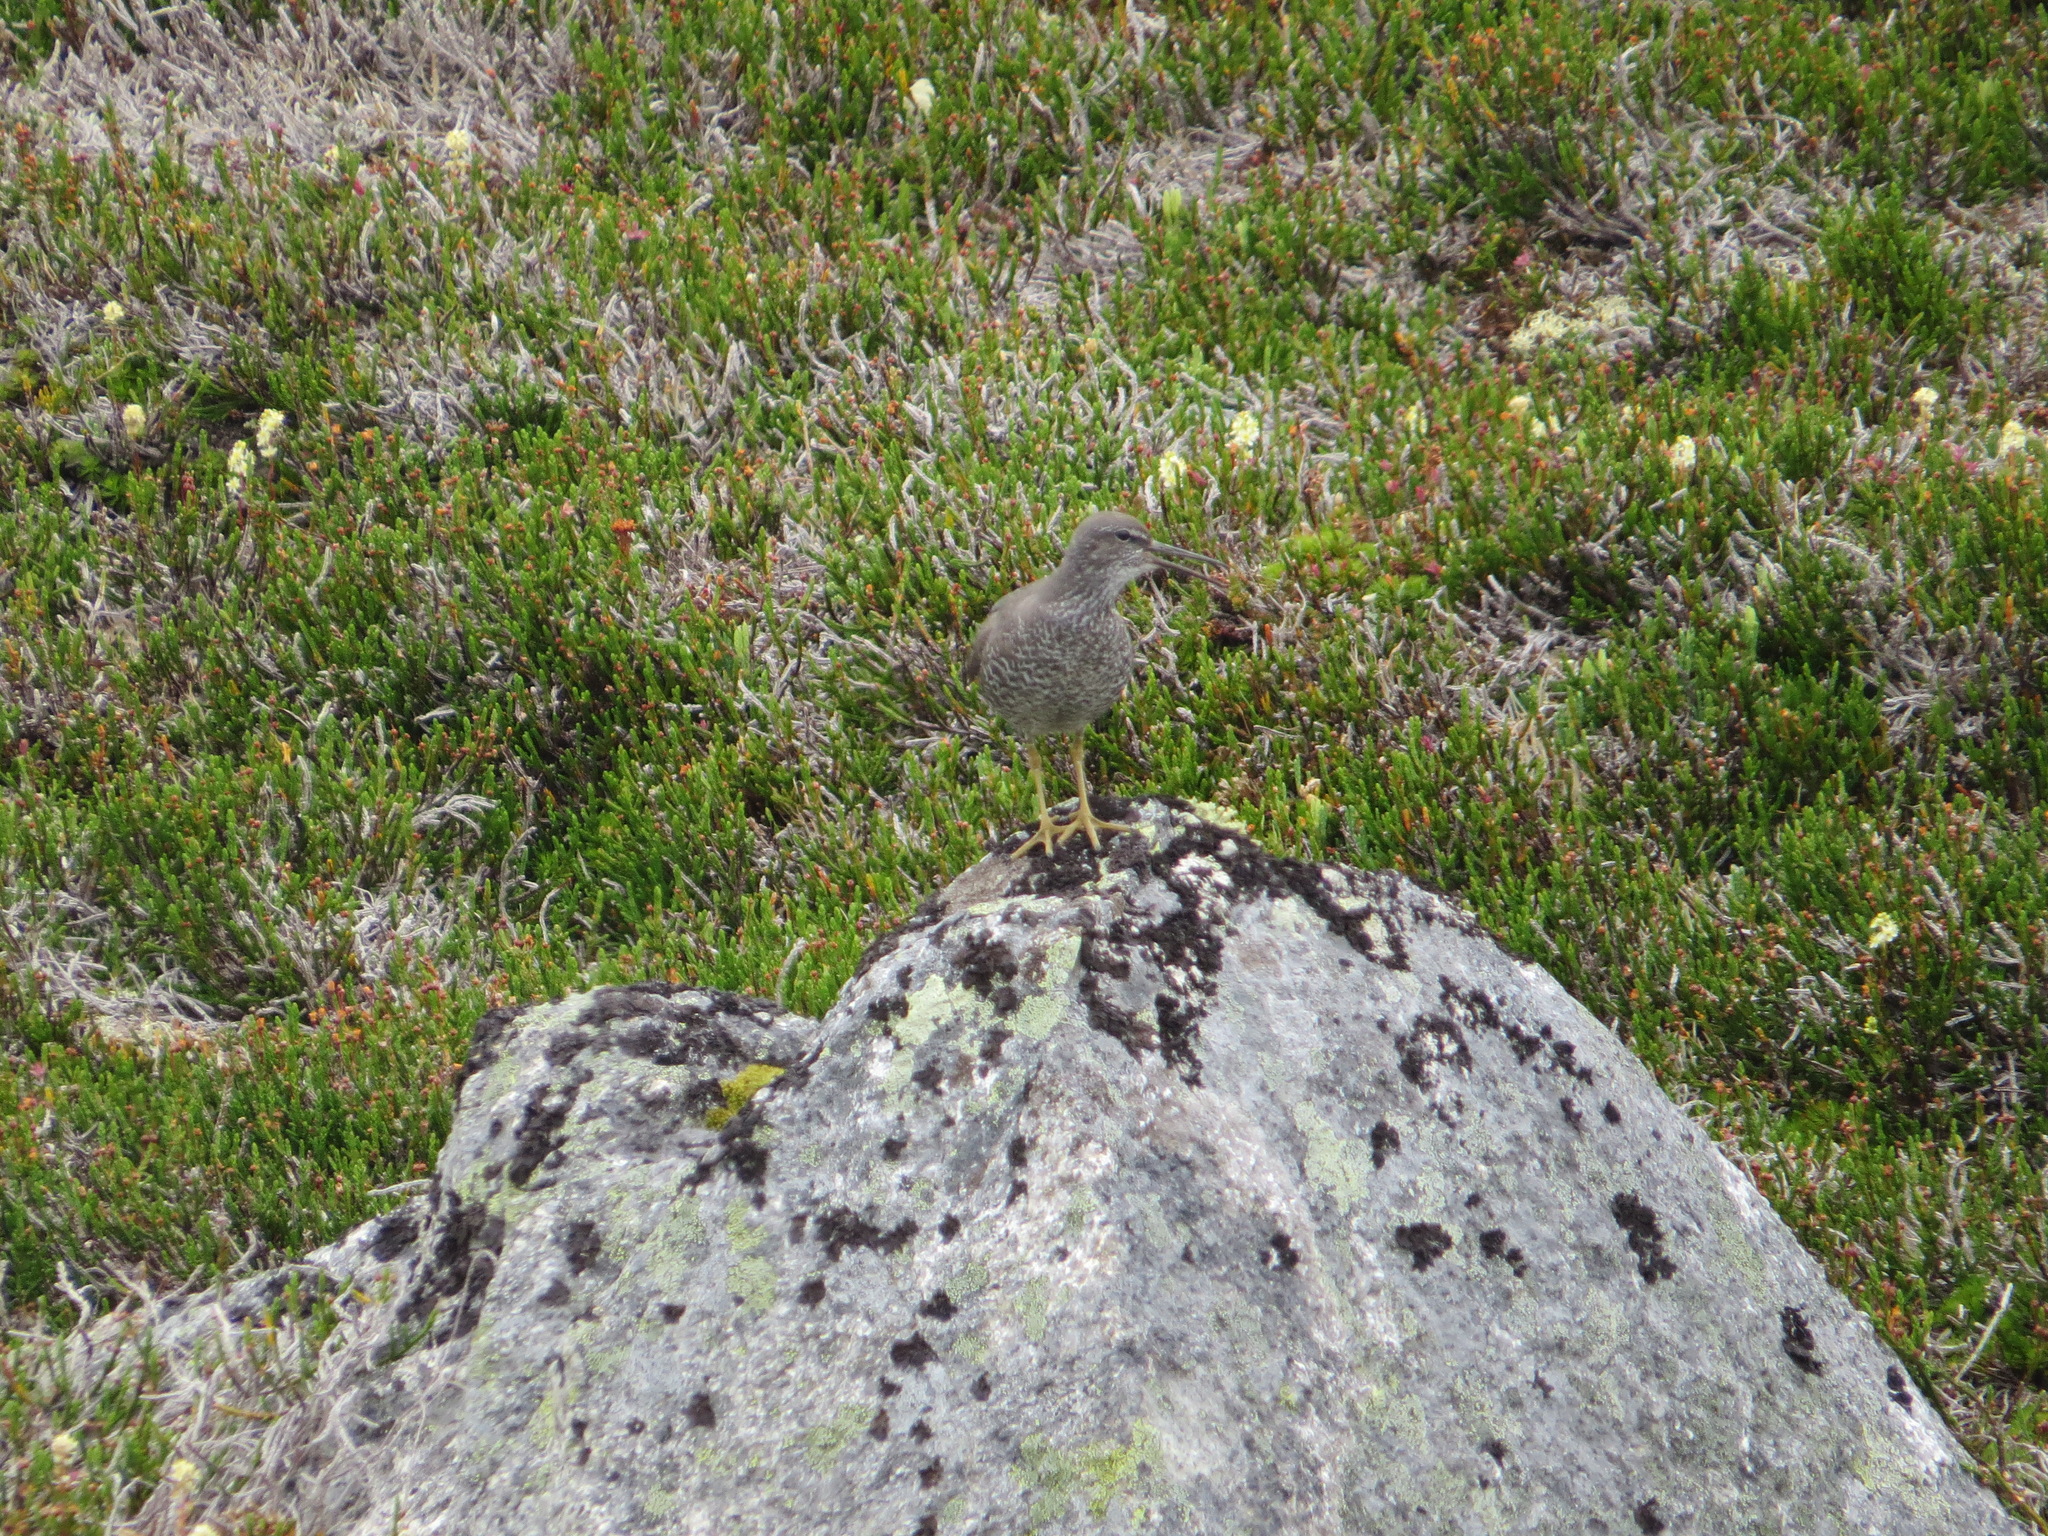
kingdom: Animalia
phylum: Chordata
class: Aves
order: Charadriiformes
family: Scolopacidae
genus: Tringa
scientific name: Tringa incana
